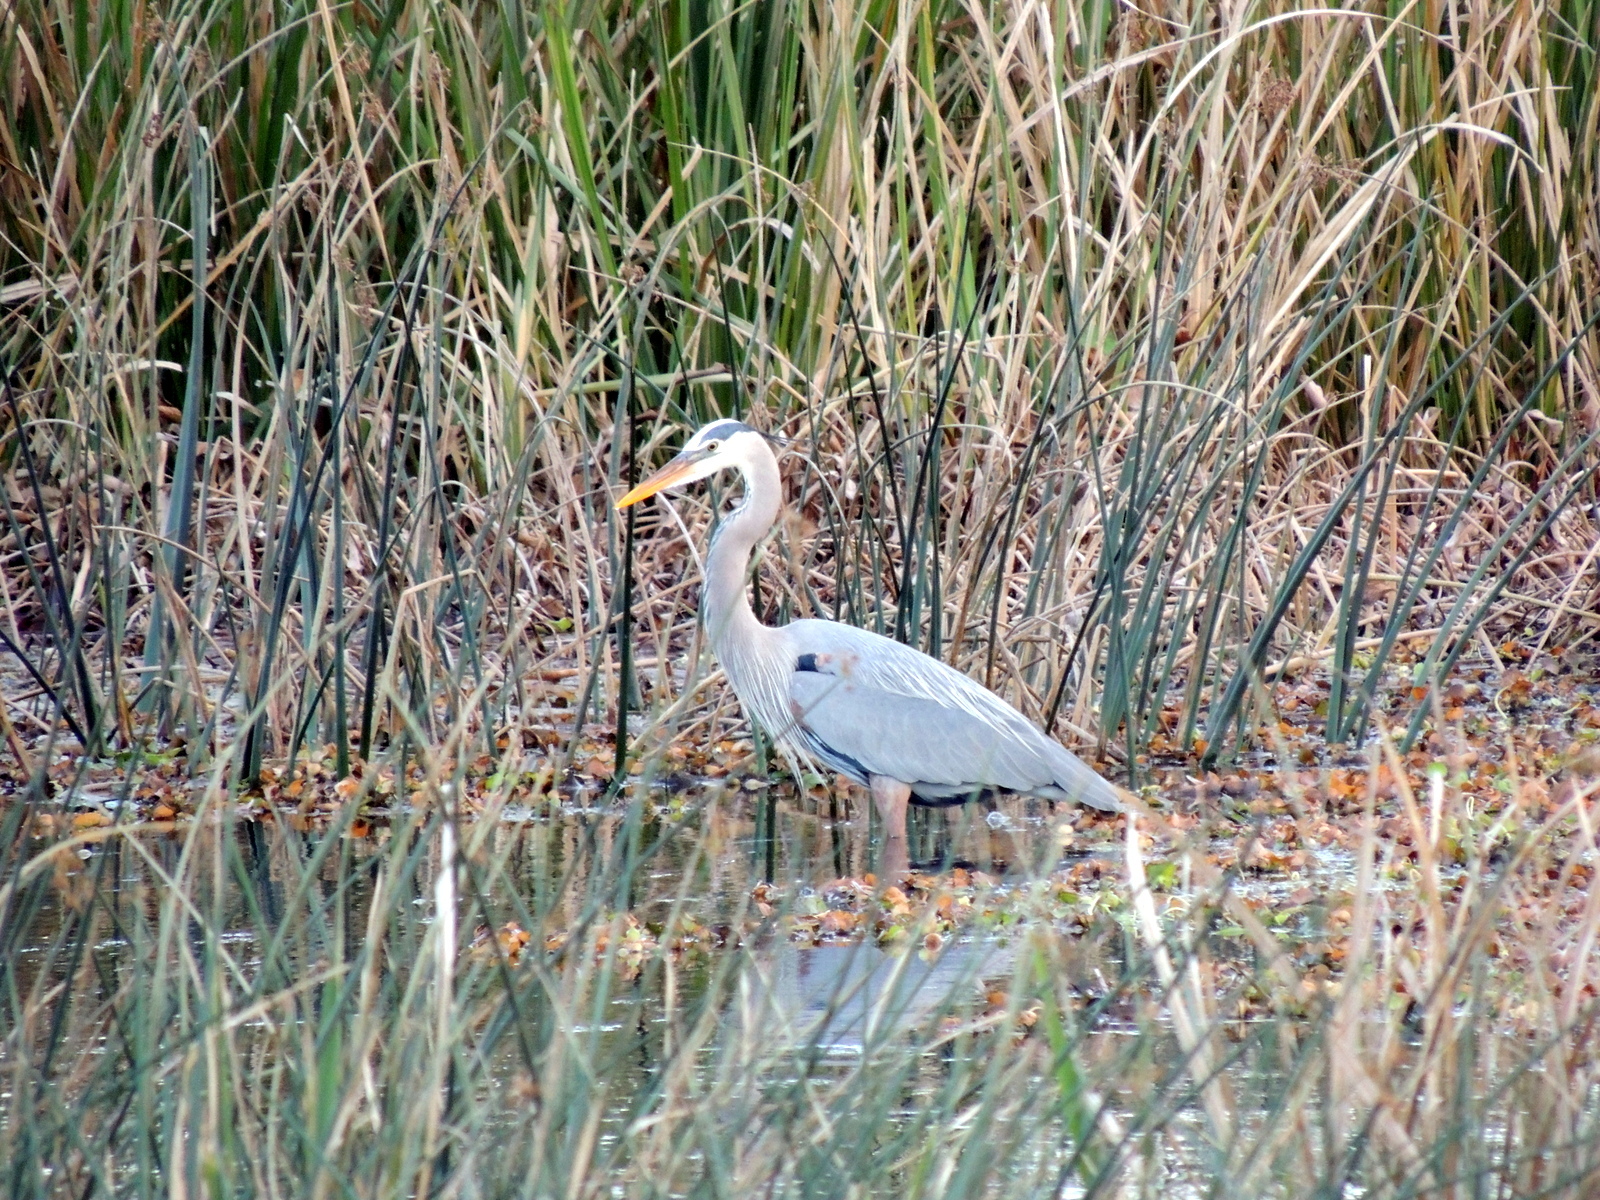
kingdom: Animalia
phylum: Chordata
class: Aves
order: Pelecaniformes
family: Ardeidae
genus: Ardea
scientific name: Ardea herodias
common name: Great blue heron
